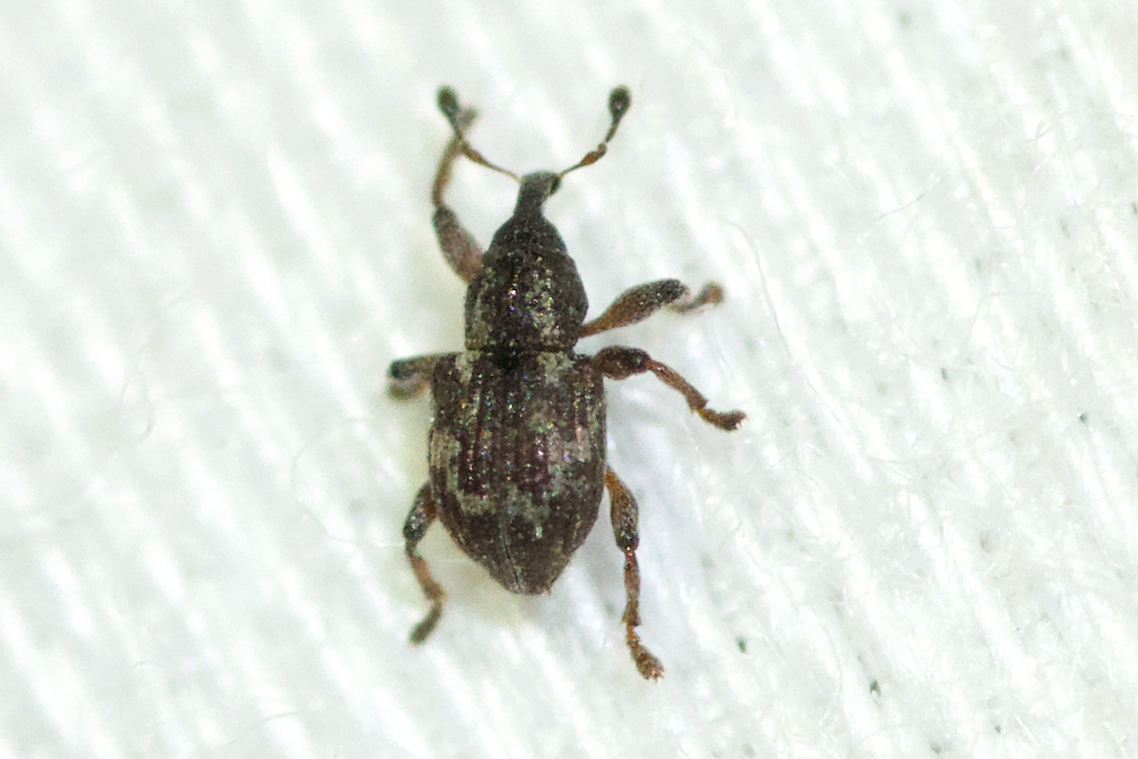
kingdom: Animalia
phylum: Arthropoda
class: Insecta
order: Coleoptera
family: Brachyceridae
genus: Tanysphyrus
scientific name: Tanysphyrus lemnae
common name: Duckweed weevil
